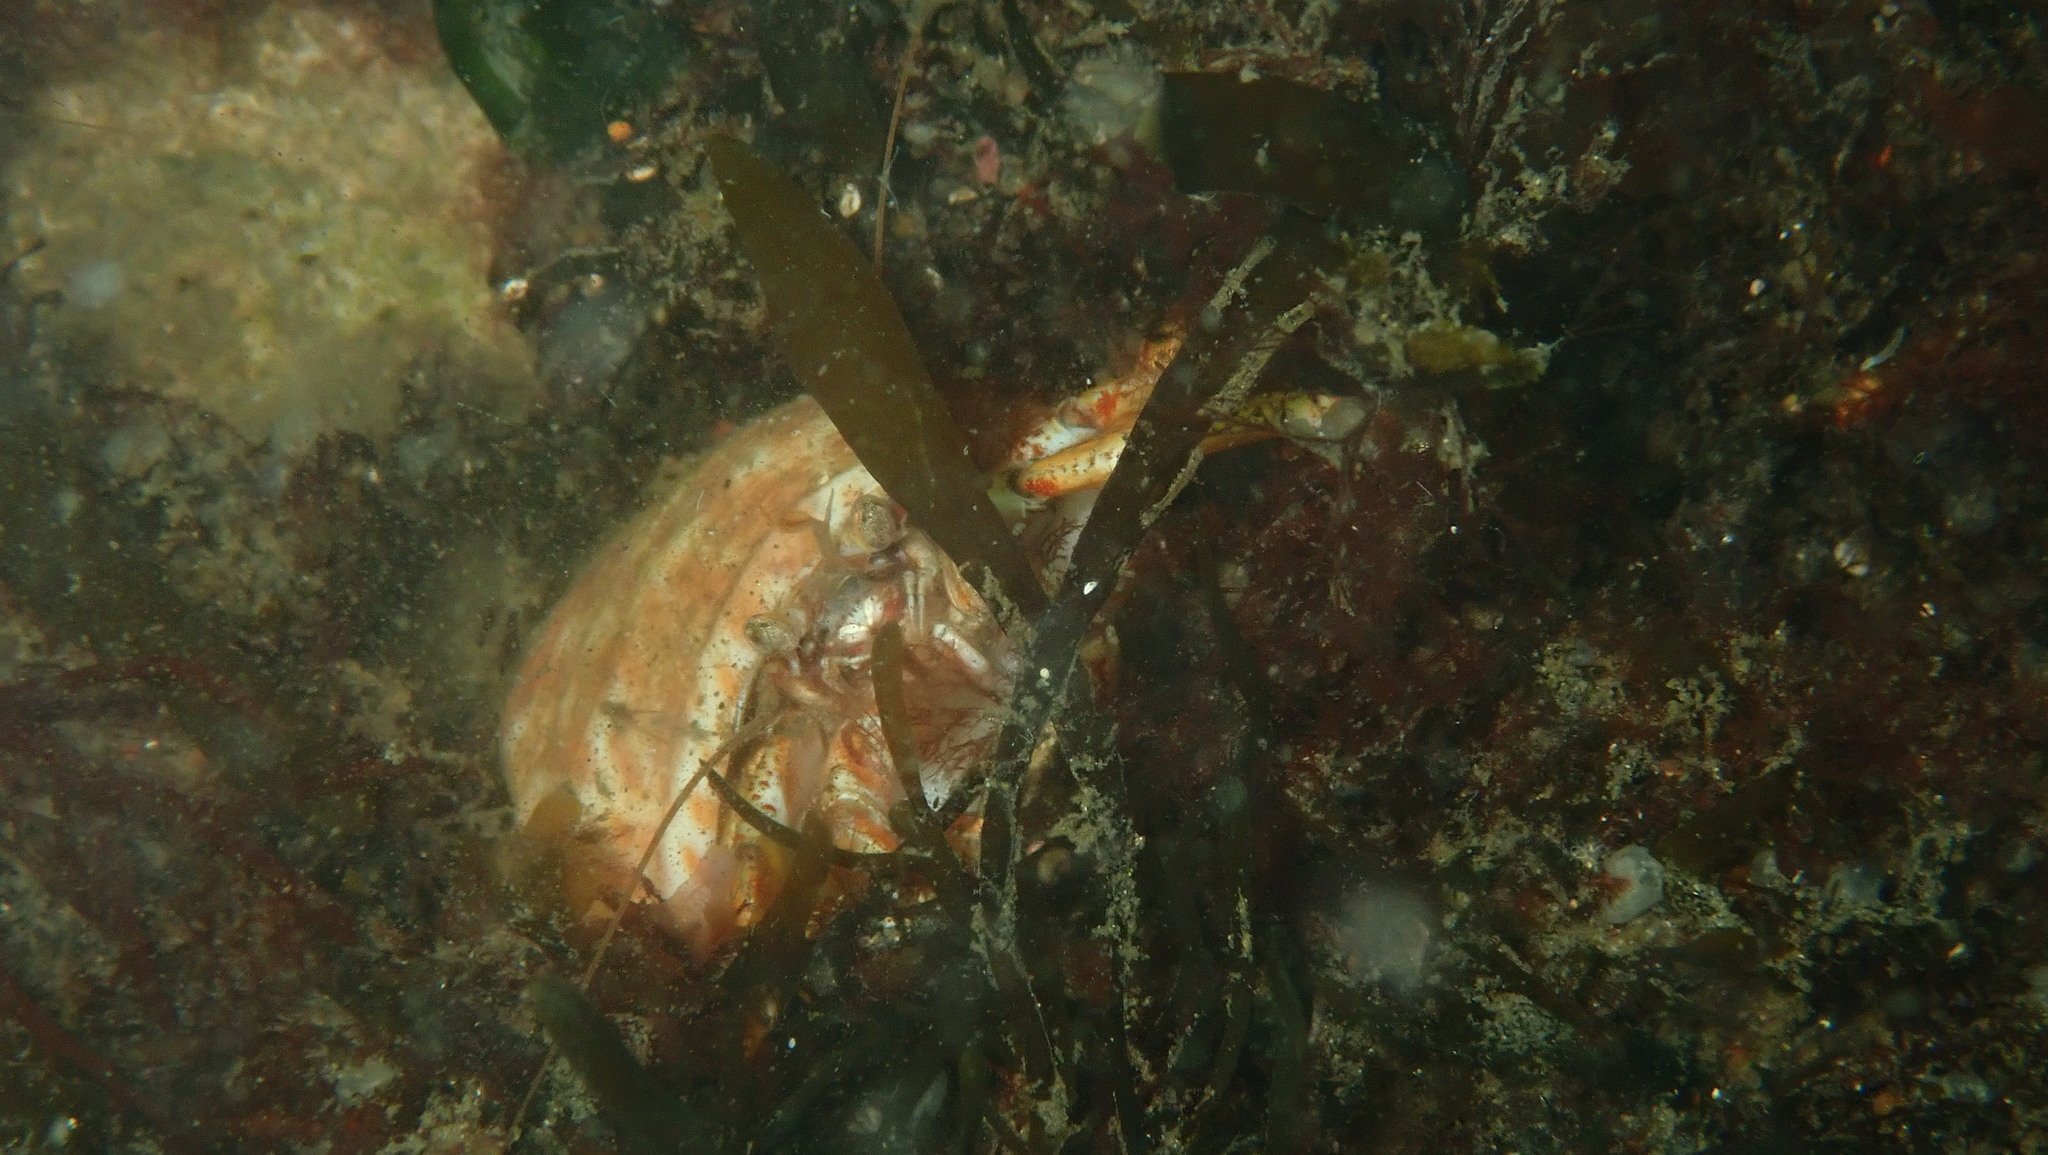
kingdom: Animalia
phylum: Arthropoda
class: Malacostraca
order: Decapoda
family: Paguridae
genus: Pagurus
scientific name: Pagurus bernhardus
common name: Hermit crab
